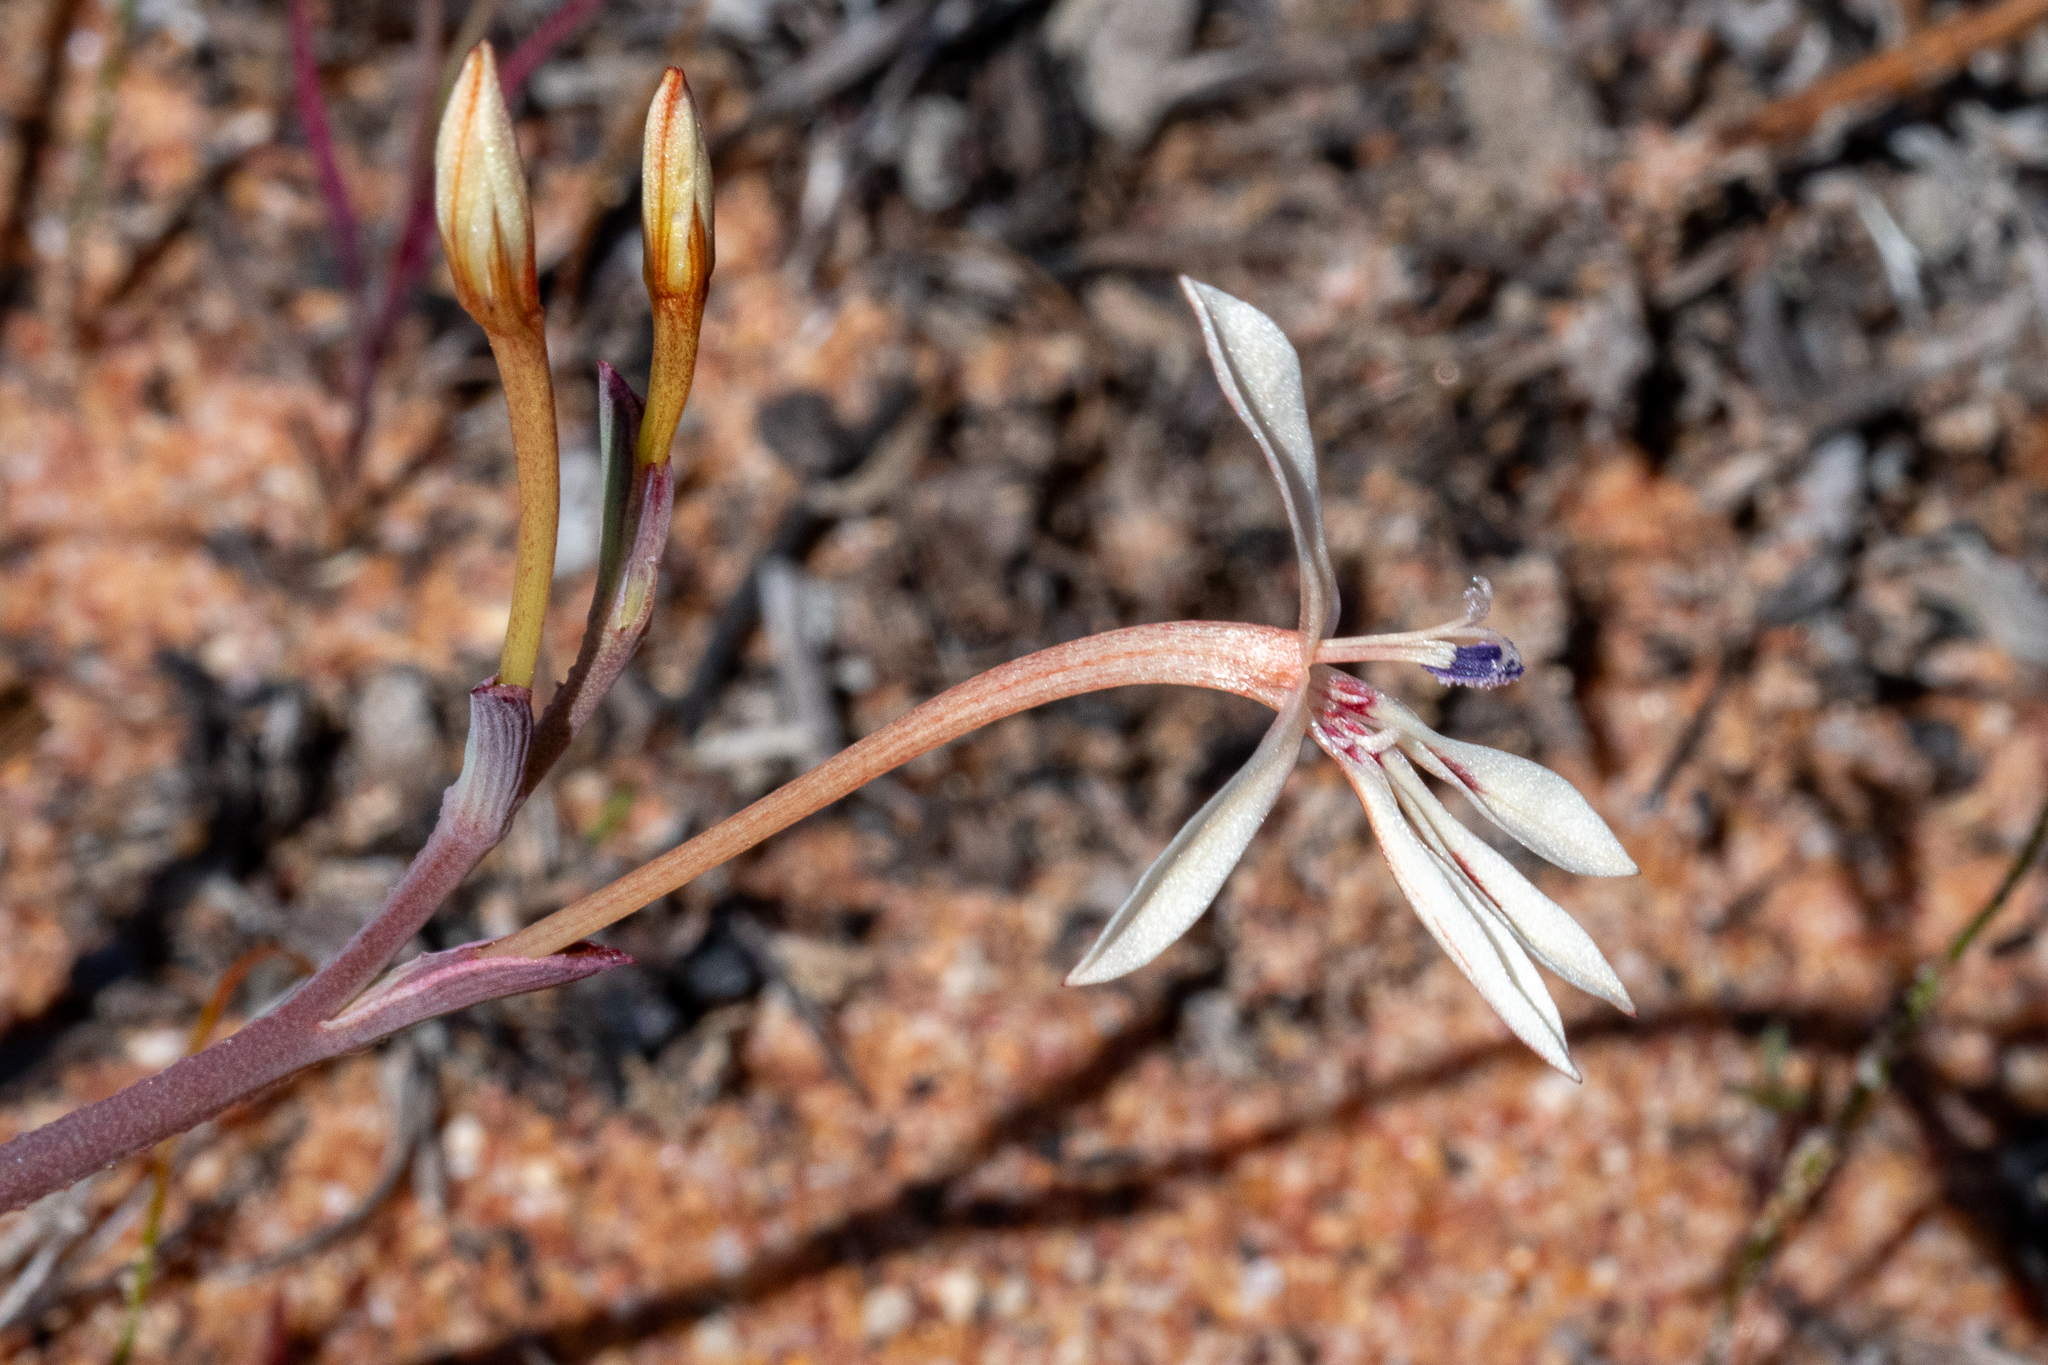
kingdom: Plantae
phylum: Tracheophyta
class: Liliopsida
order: Asparagales
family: Iridaceae
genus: Lapeirousia
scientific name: Lapeirousia anceps
